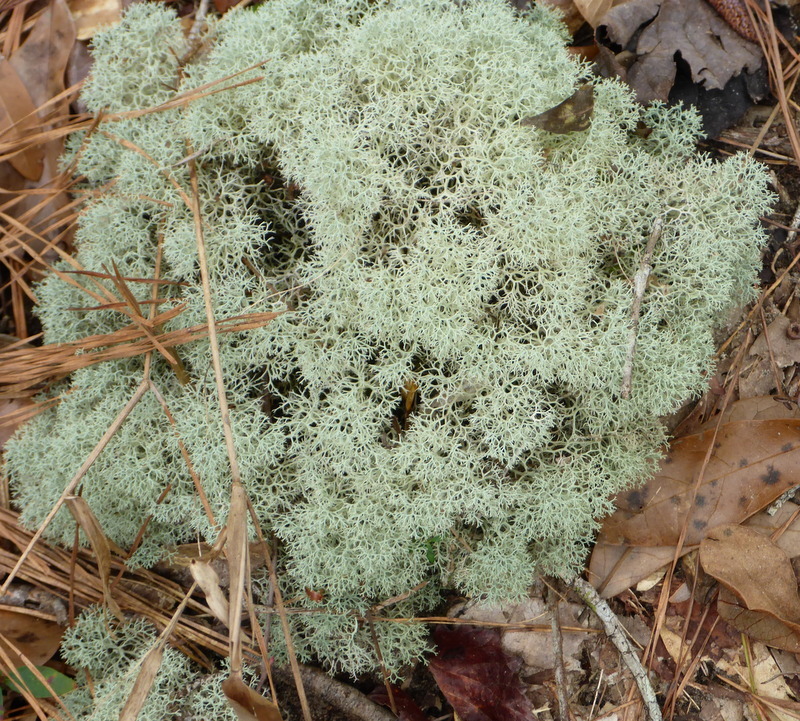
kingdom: Fungi
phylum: Ascomycota
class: Lecanoromycetes
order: Lecanorales
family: Cladoniaceae
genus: Cladonia
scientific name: Cladonia evansii
